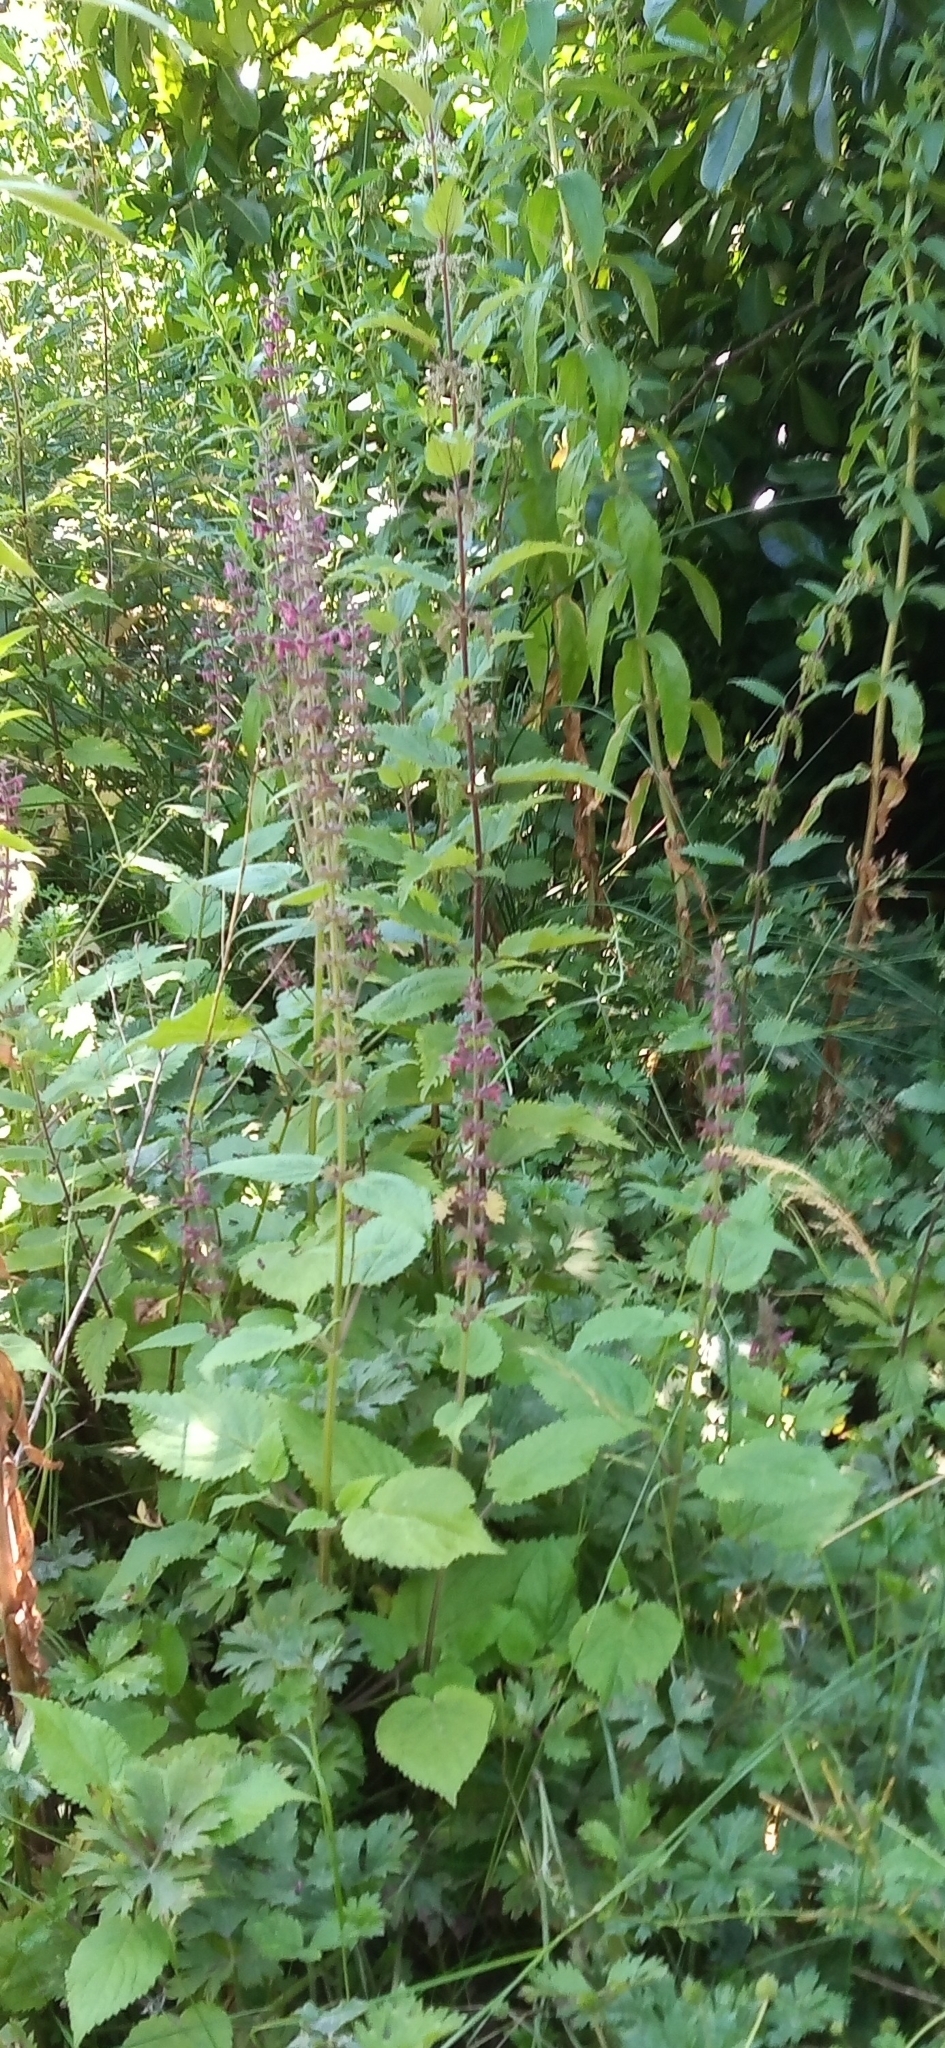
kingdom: Plantae
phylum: Tracheophyta
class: Magnoliopsida
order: Lamiales
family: Lamiaceae
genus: Stachys
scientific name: Stachys sylvatica
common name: Hedge woundwort
